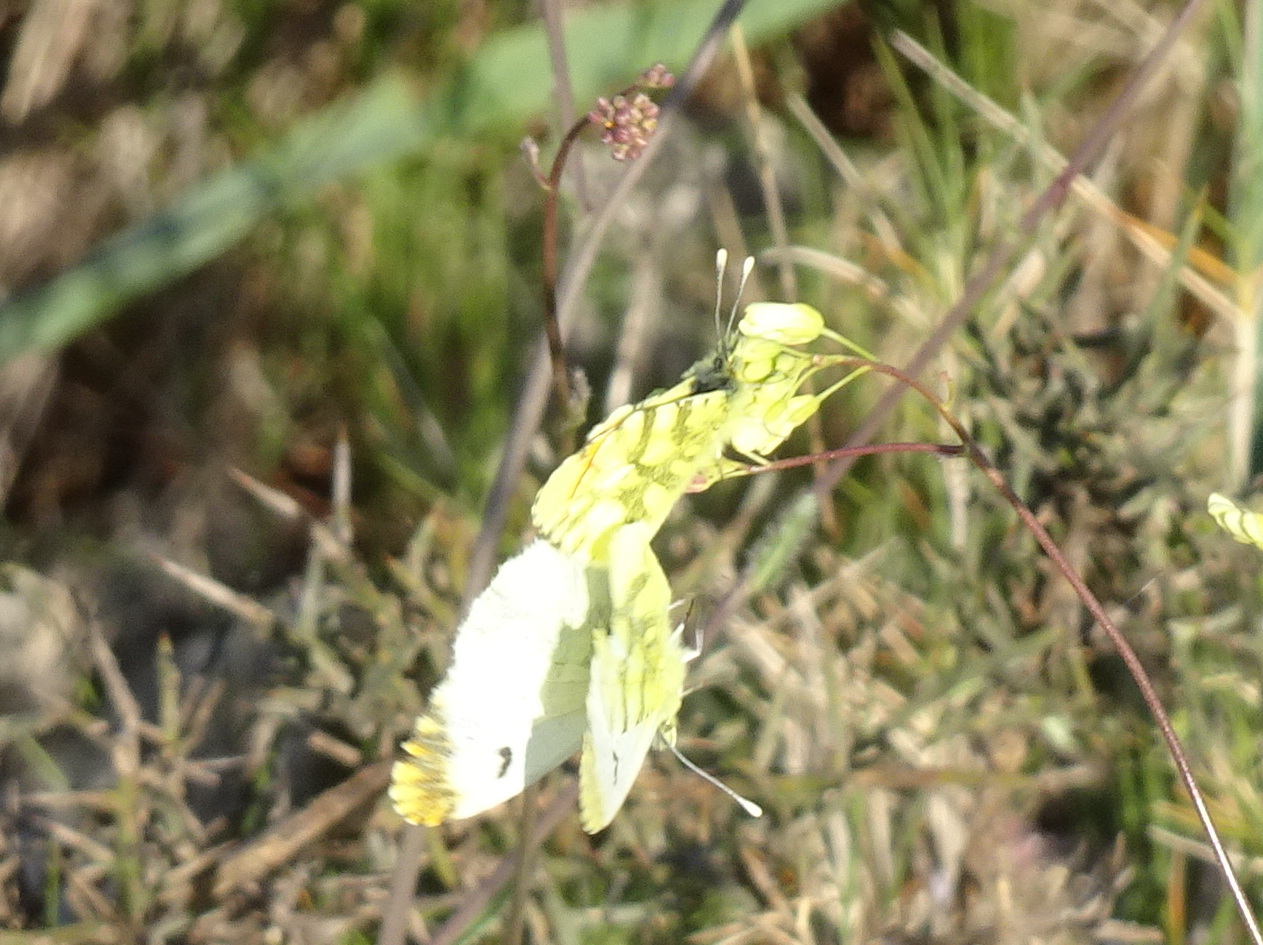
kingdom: Animalia
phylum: Arthropoda
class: Insecta
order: Lepidoptera
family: Pieridae
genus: Anthocharis
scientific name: Anthocharis euphenoides
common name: Provence orange-tip
